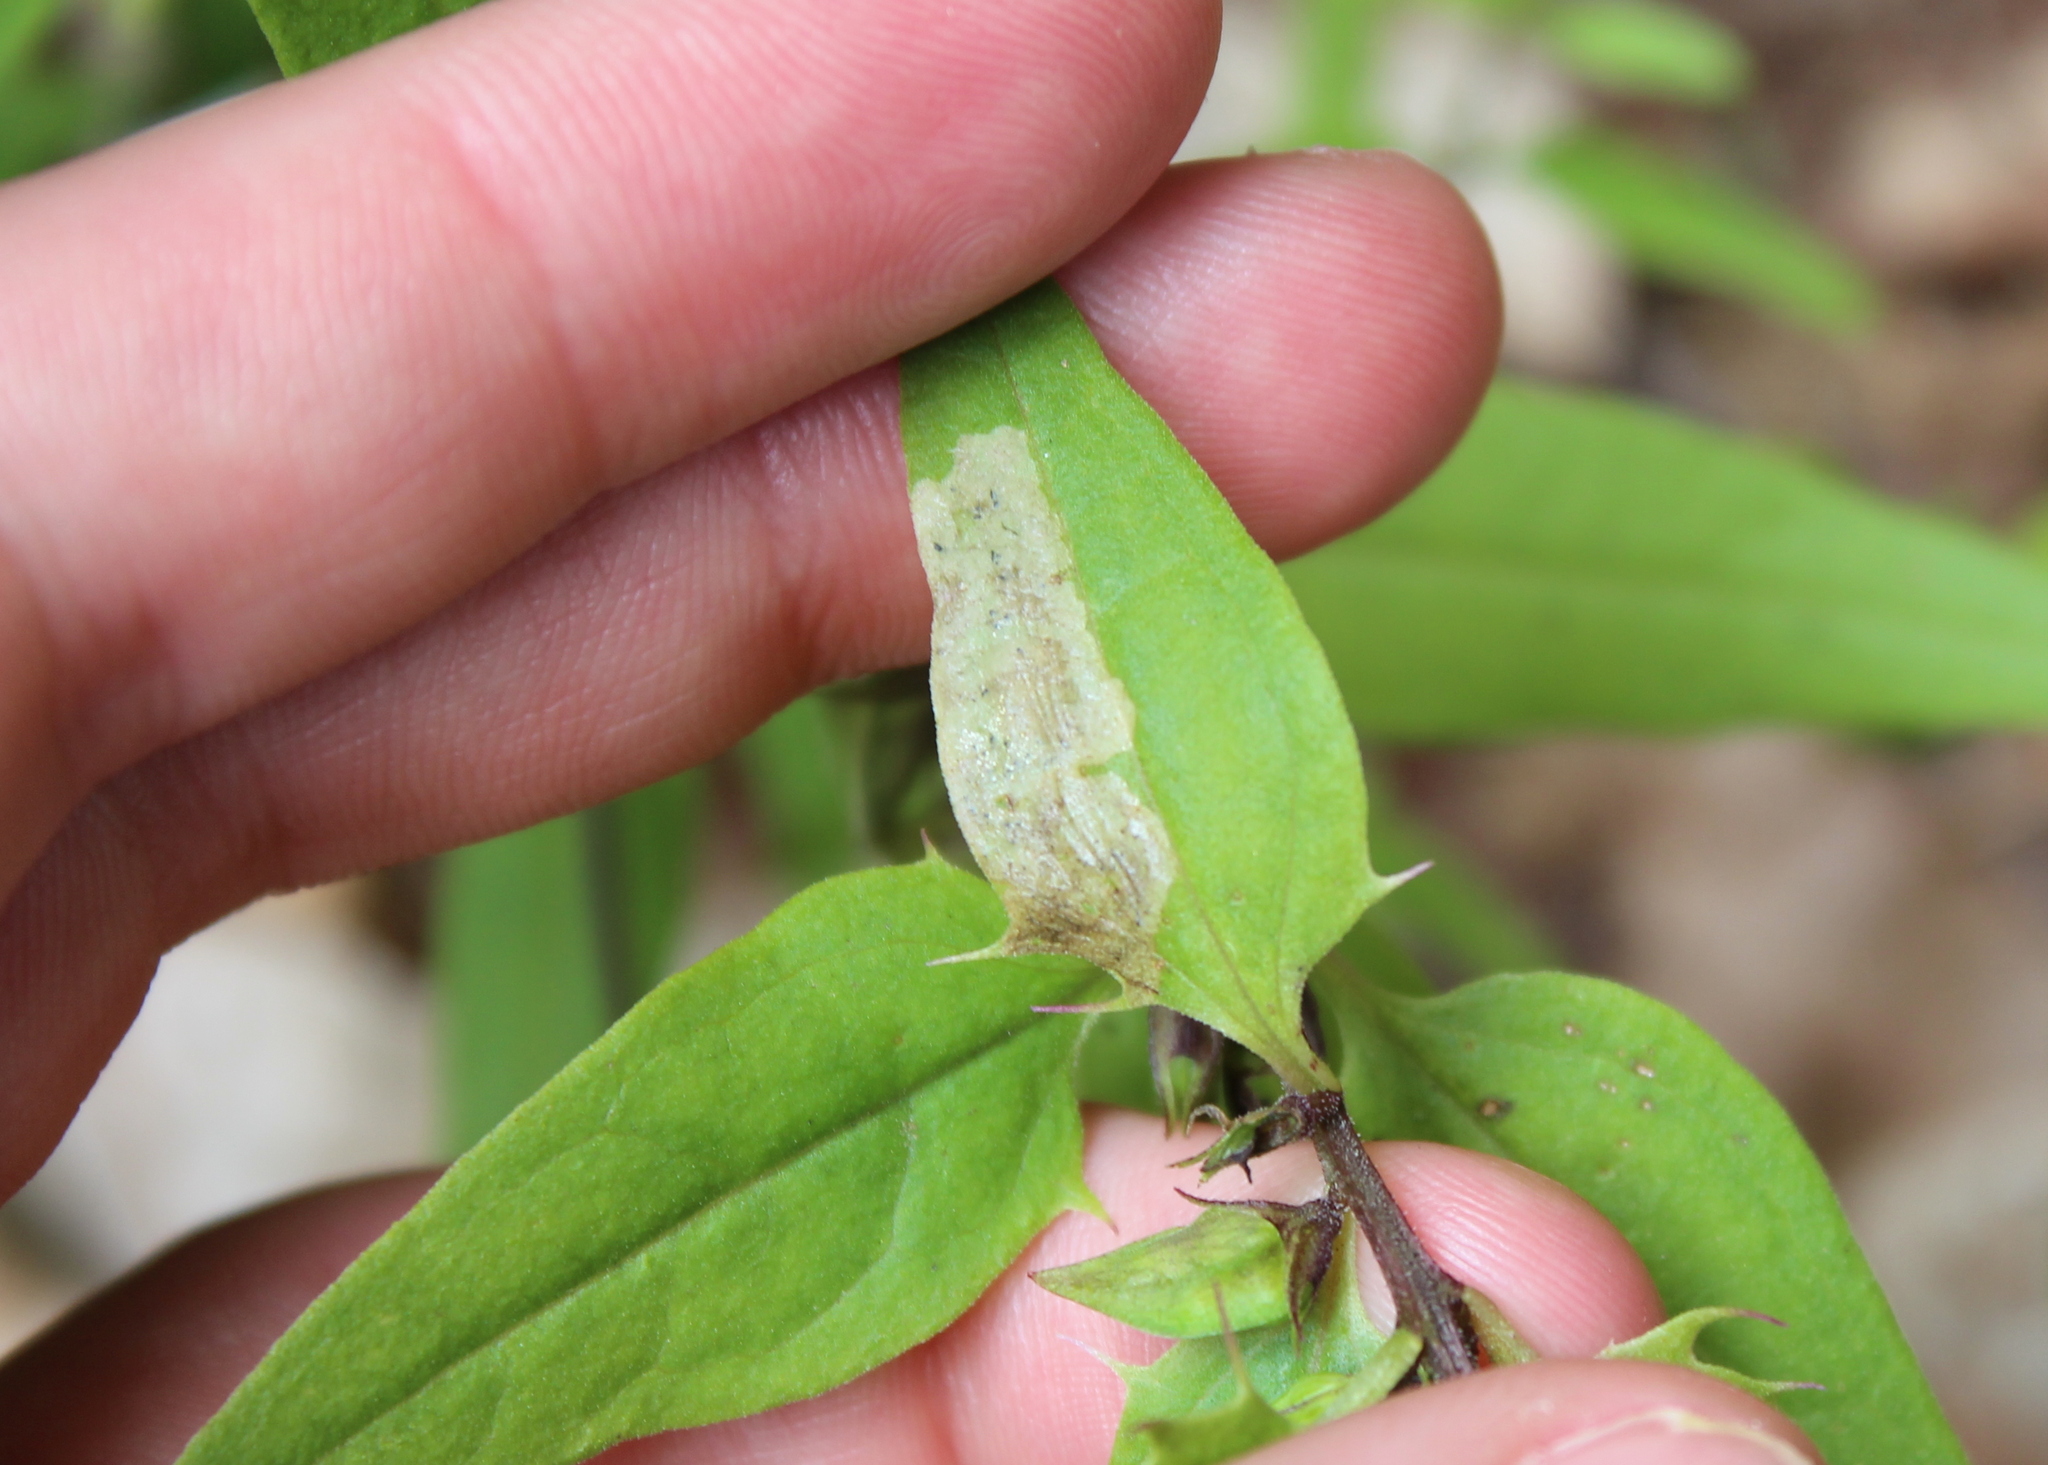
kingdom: Animalia
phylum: Arthropoda
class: Insecta
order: Diptera
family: Agromyzidae
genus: Liriomyza
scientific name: Liriomyza pistilla
